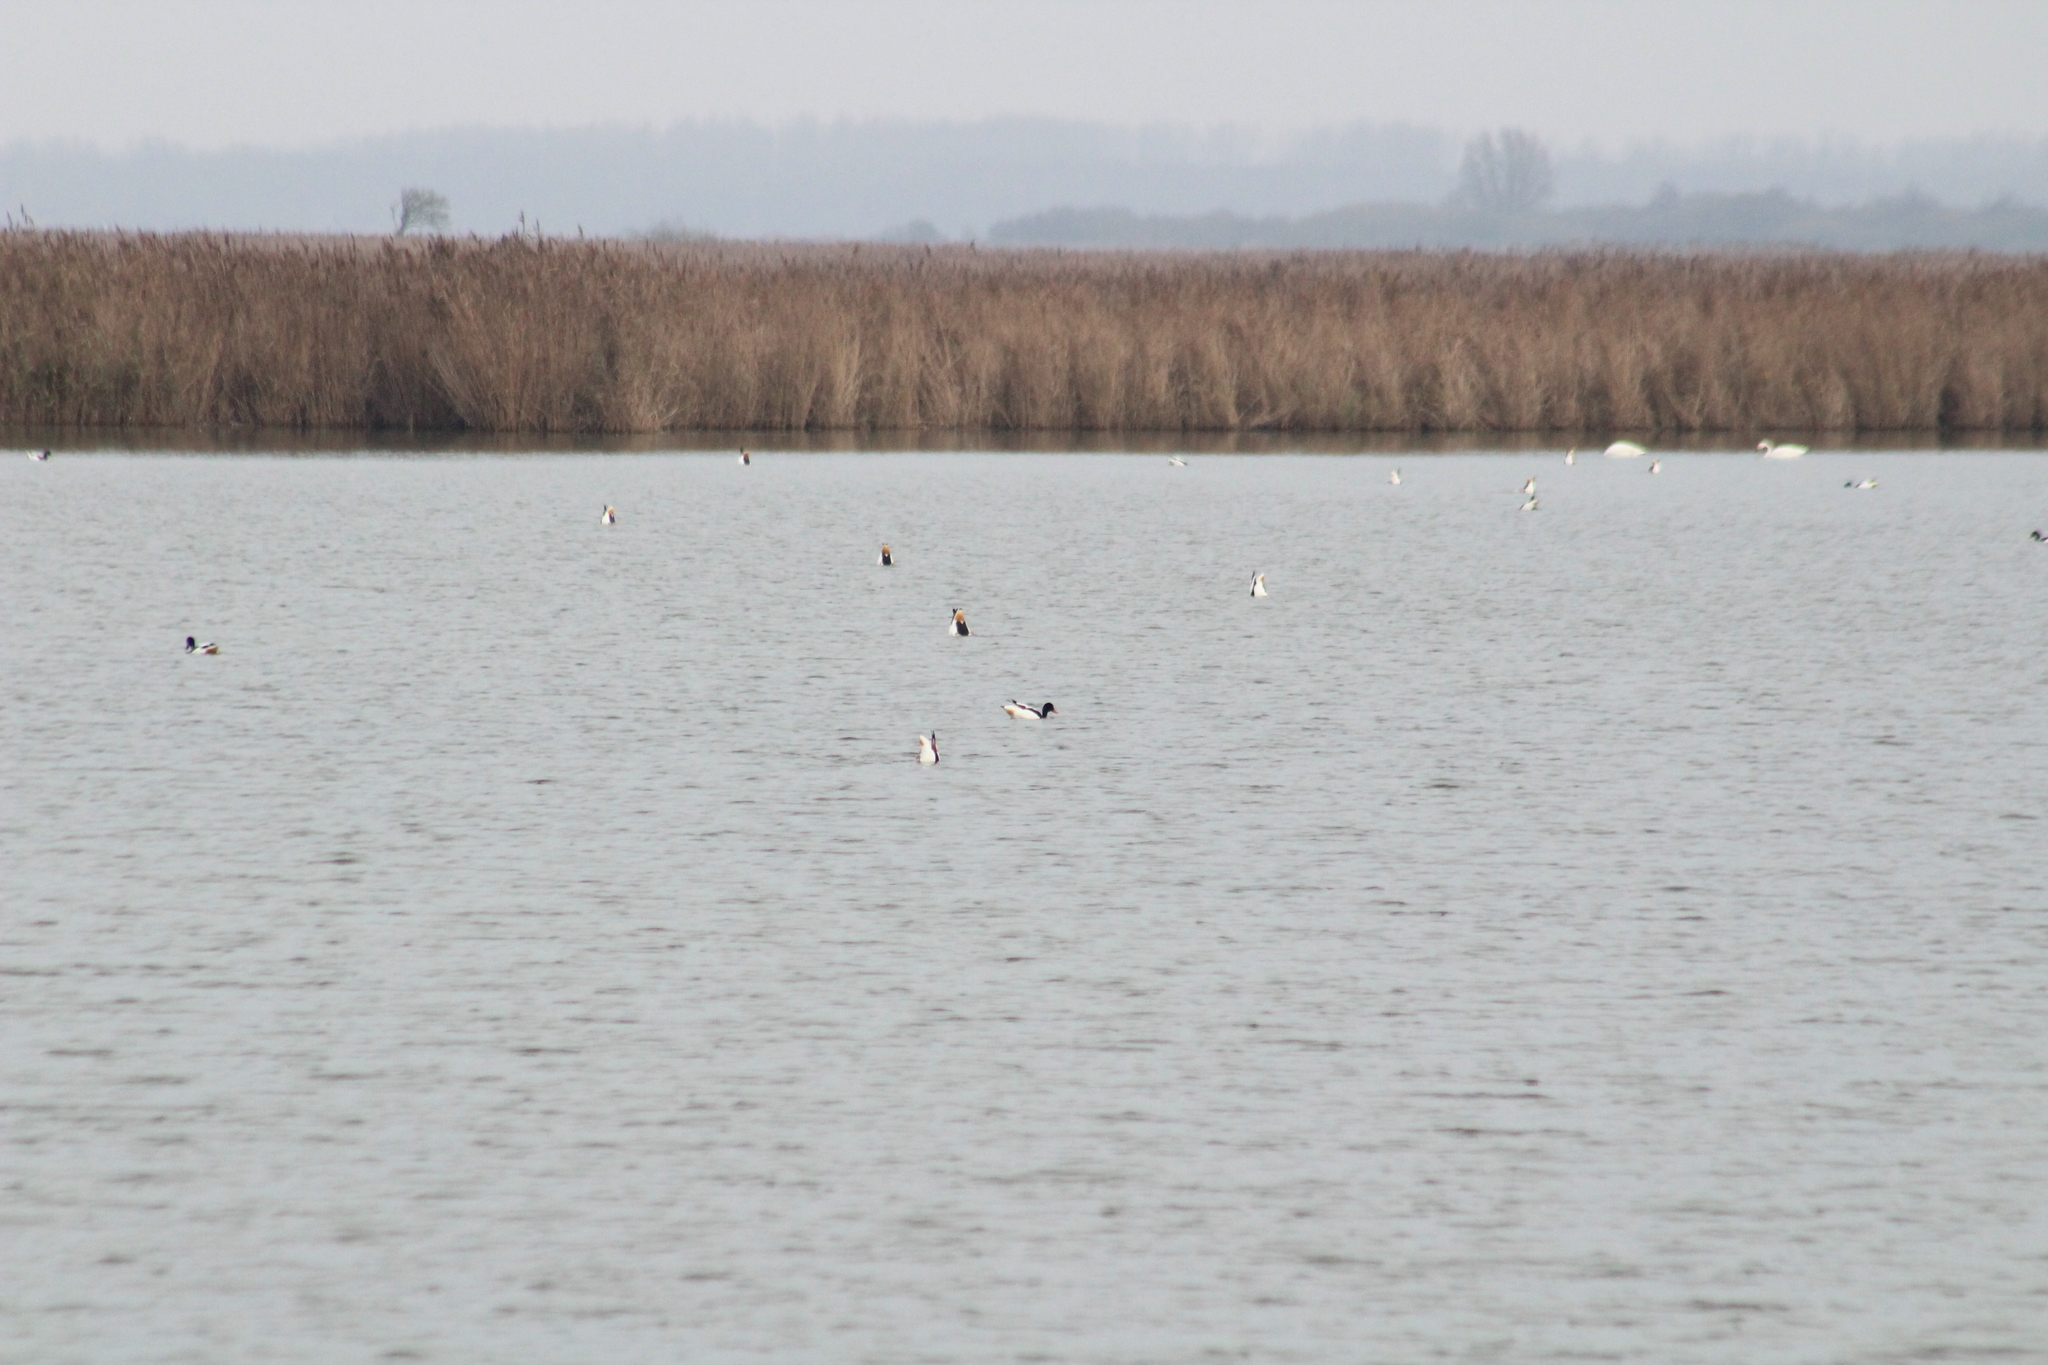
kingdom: Animalia
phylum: Chordata
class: Aves
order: Anseriformes
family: Anatidae
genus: Tadorna
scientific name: Tadorna tadorna
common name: Common shelduck
